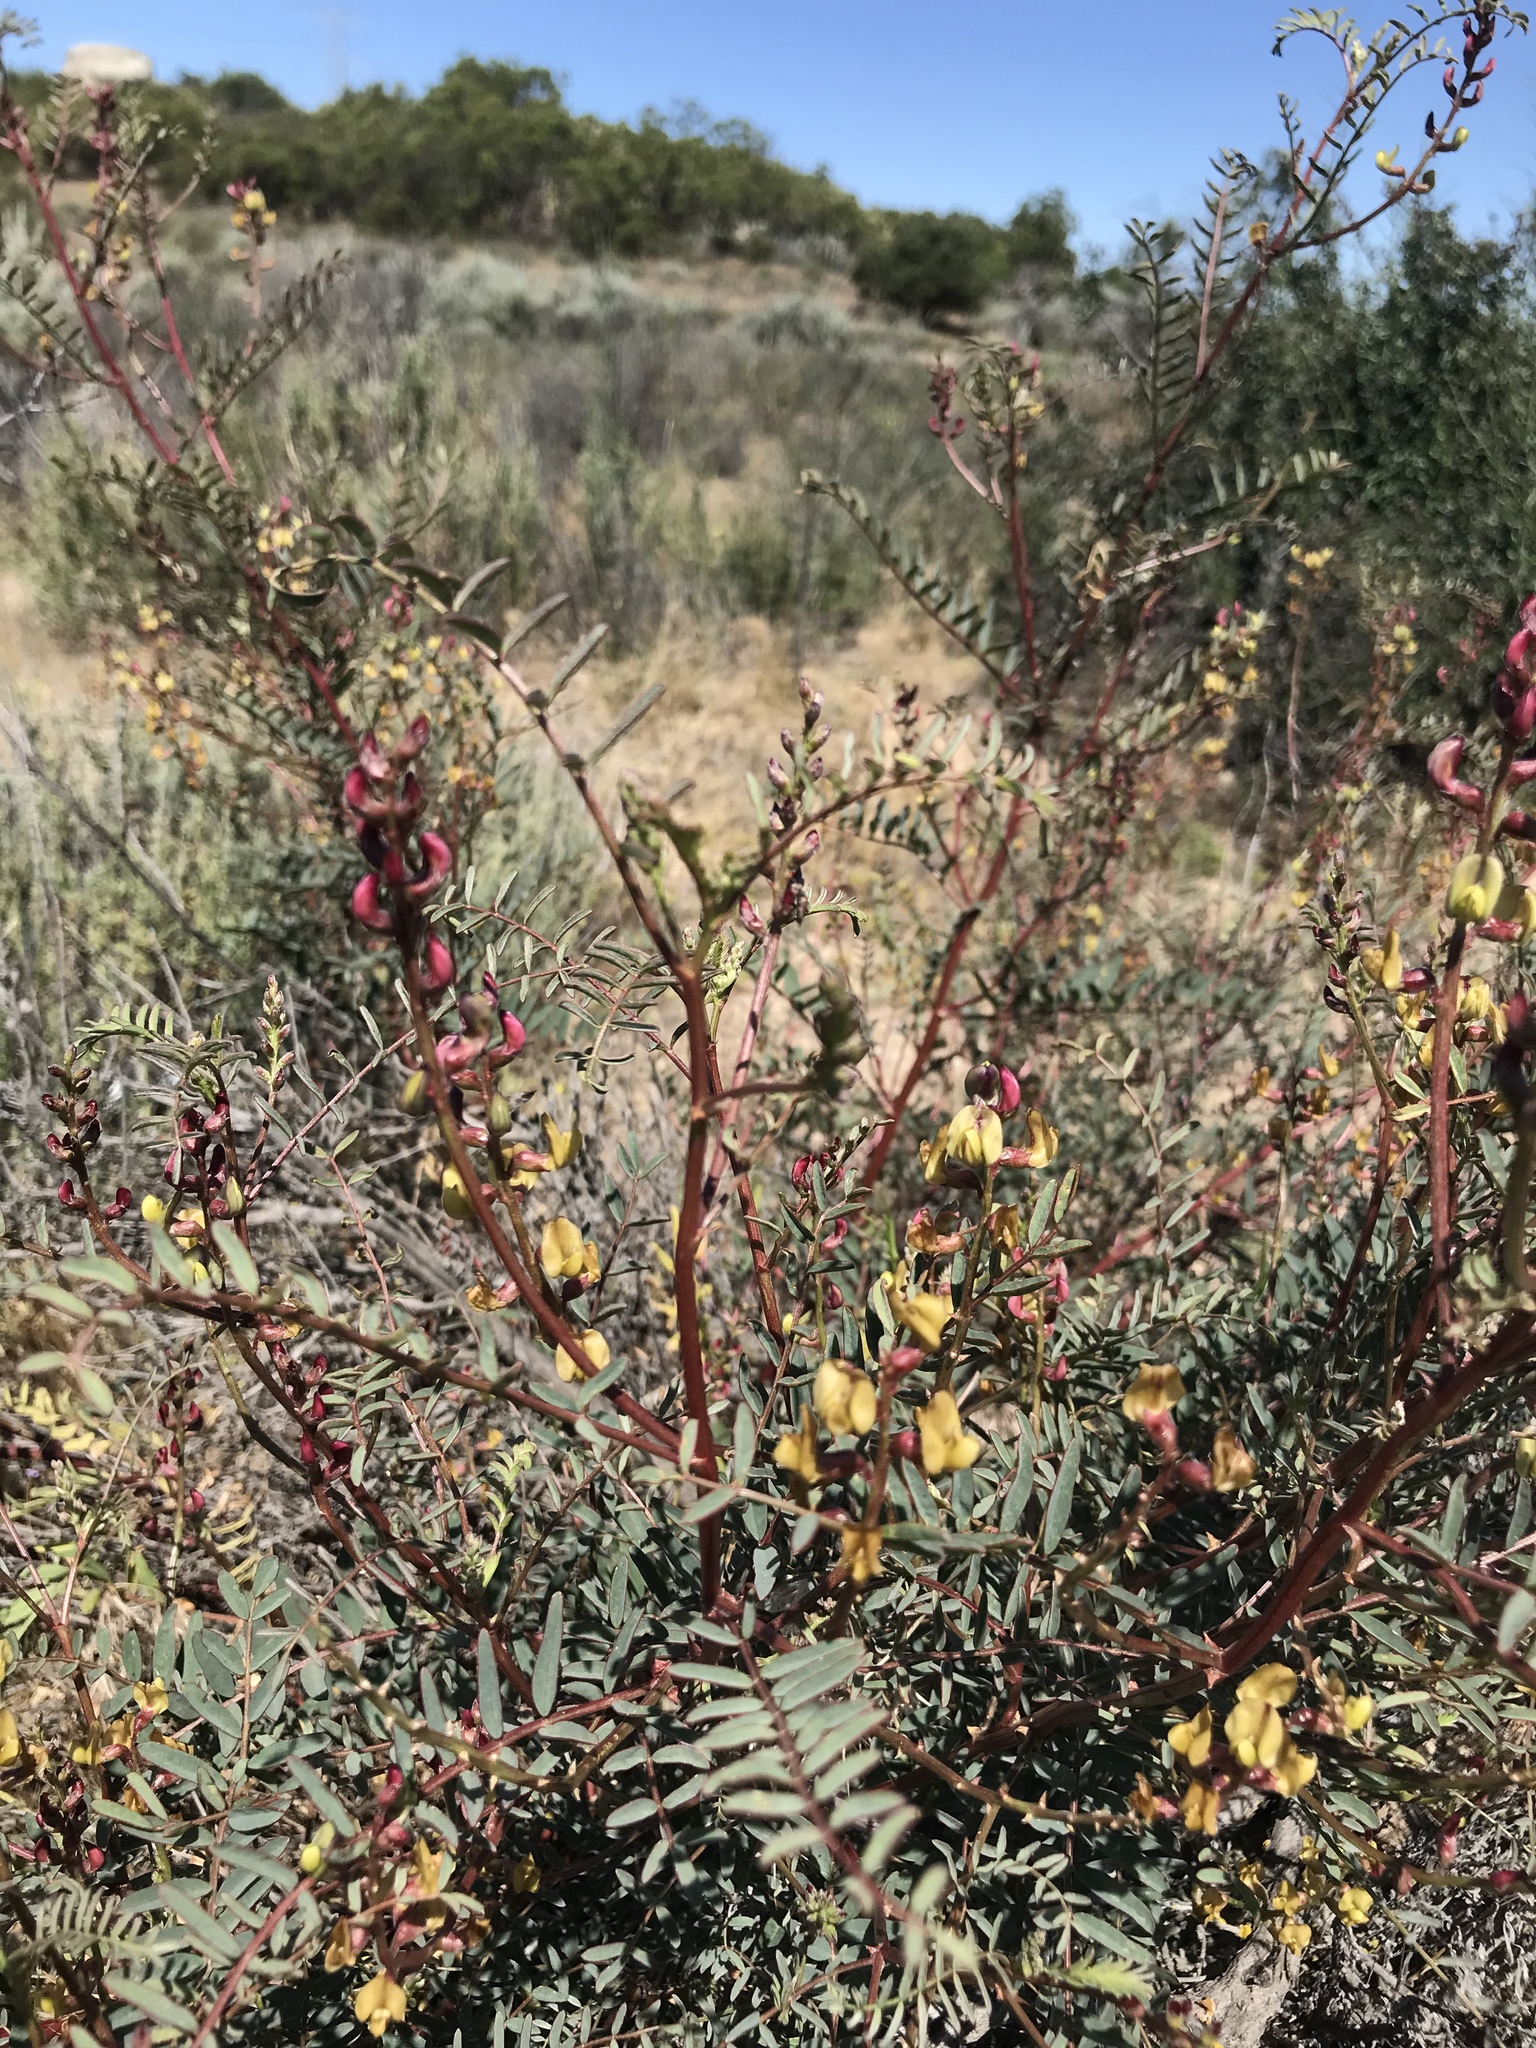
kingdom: Plantae
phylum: Tracheophyta
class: Magnoliopsida
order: Fabales
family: Fabaceae
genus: Astragalus
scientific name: Astragalus douglasii
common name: Jacumba milkvetch
